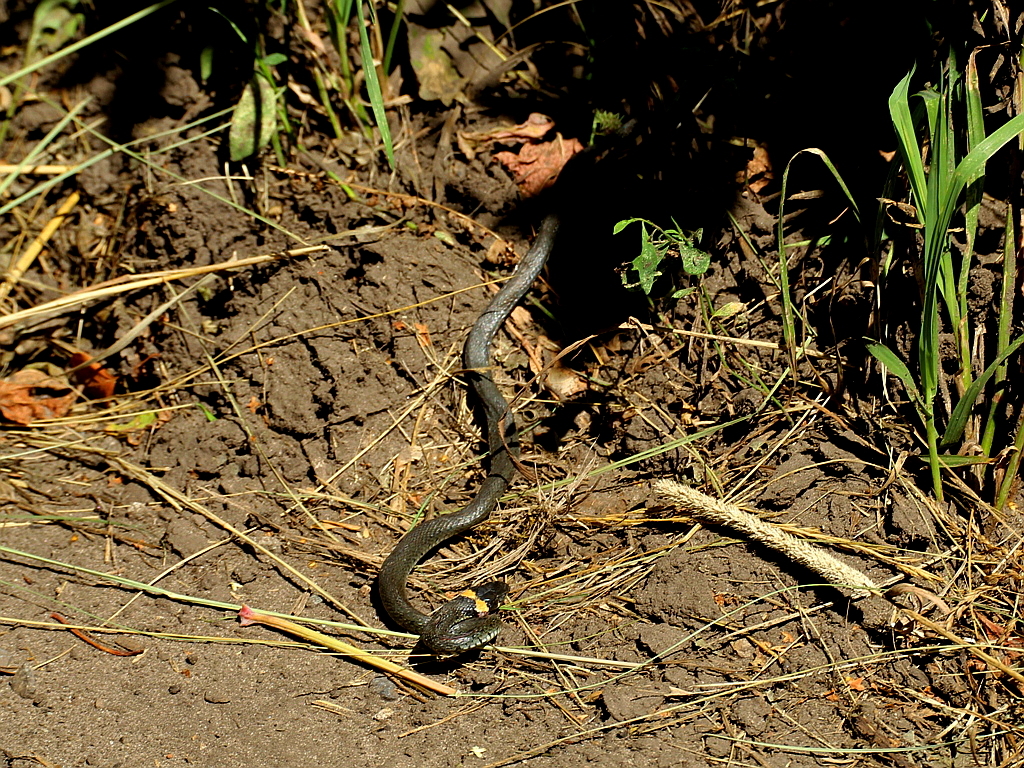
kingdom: Animalia
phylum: Chordata
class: Squamata
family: Colubridae
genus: Natrix
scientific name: Natrix natrix
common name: Grass snake
